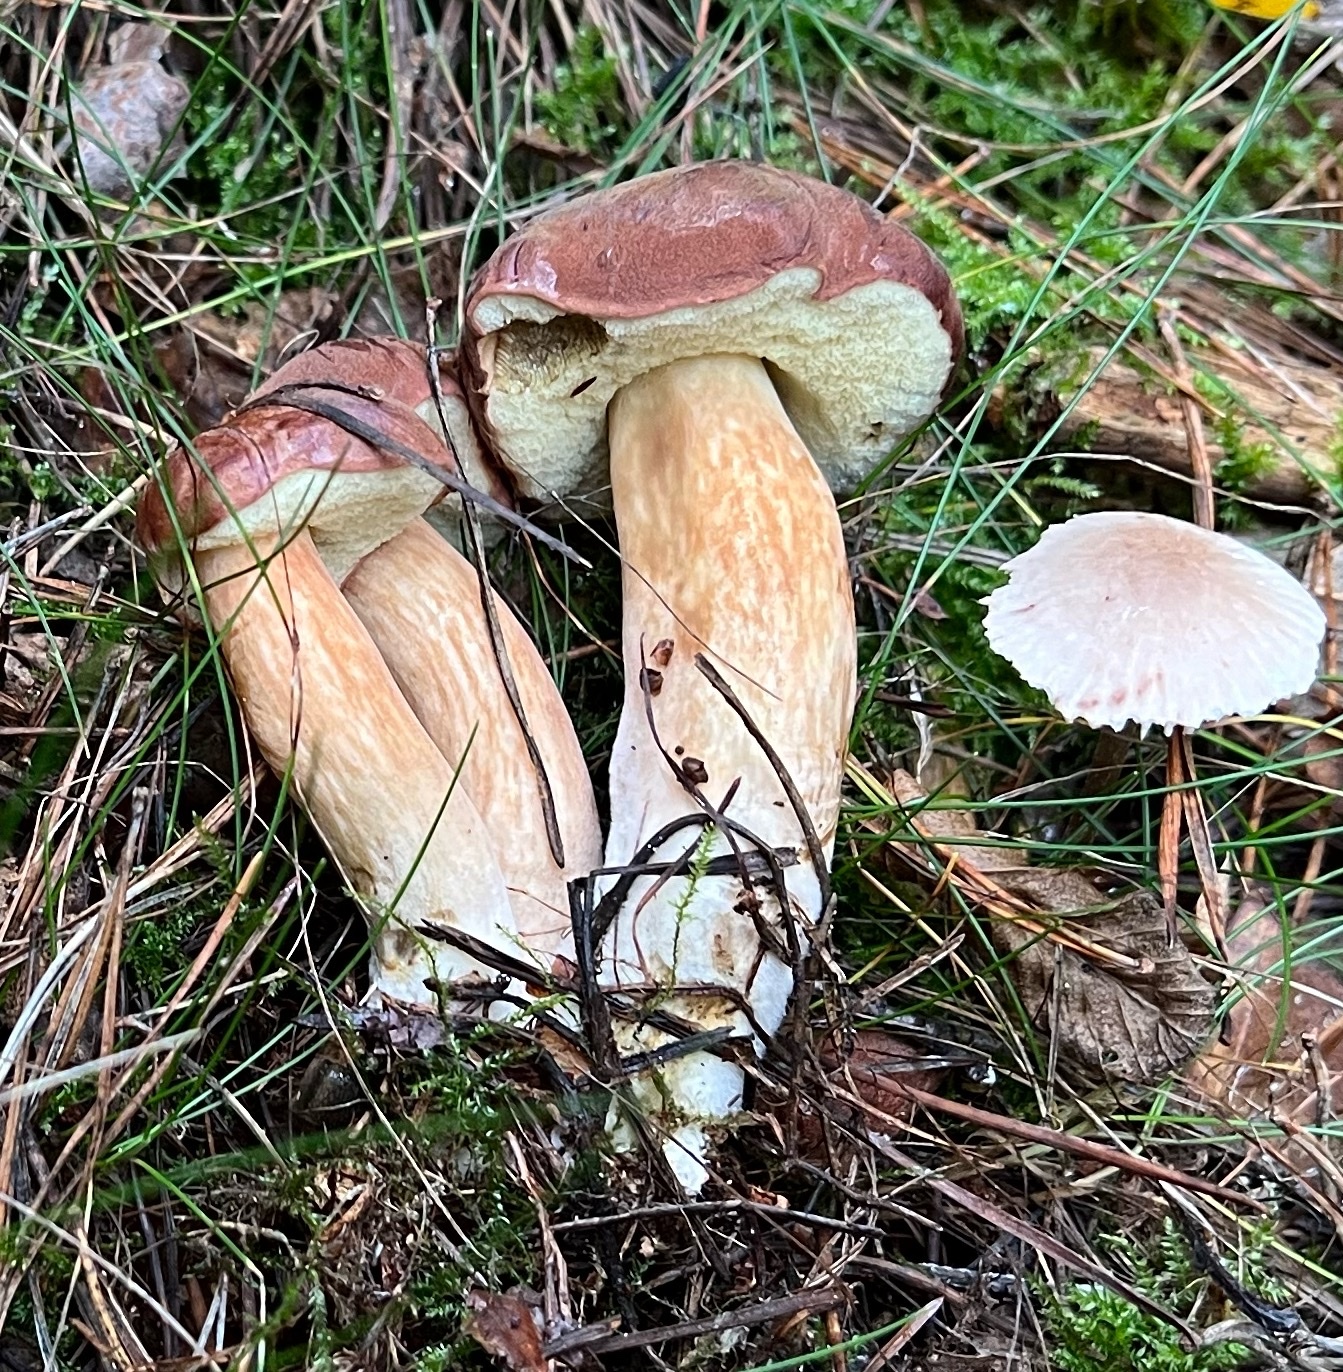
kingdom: Fungi
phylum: Basidiomycota
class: Agaricomycetes
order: Boletales
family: Boletaceae
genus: Imleria
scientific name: Imleria badia
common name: Bay bolete
